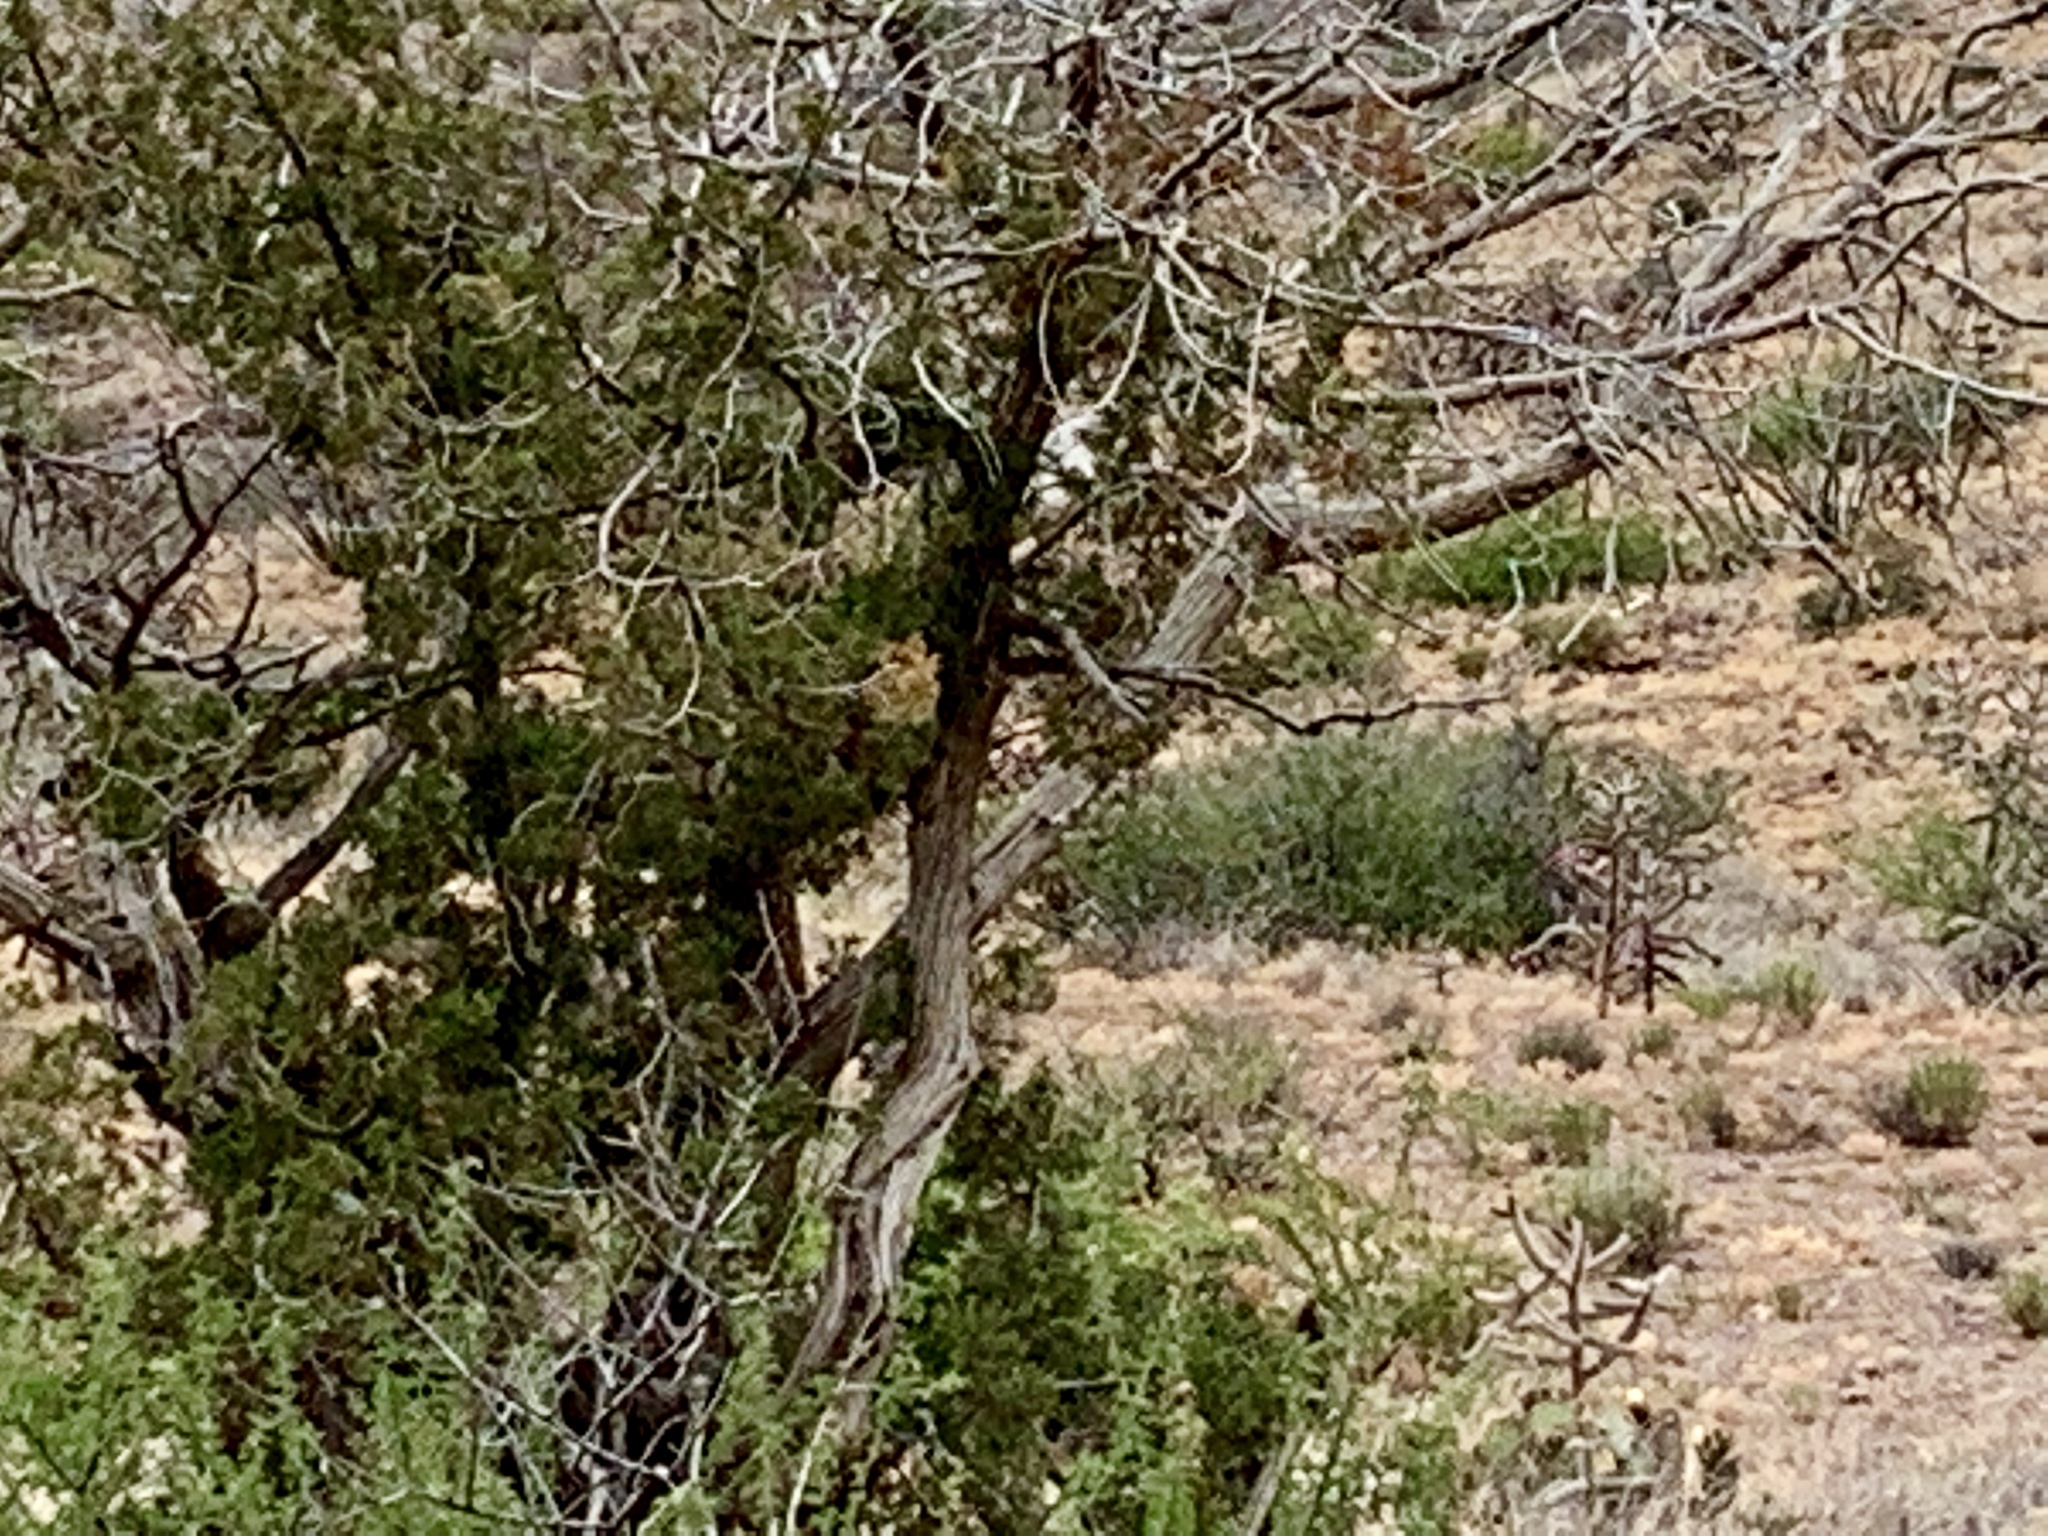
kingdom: Plantae
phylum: Tracheophyta
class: Pinopsida
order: Pinales
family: Cupressaceae
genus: Juniperus
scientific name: Juniperus monosperma
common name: One-seed juniper
